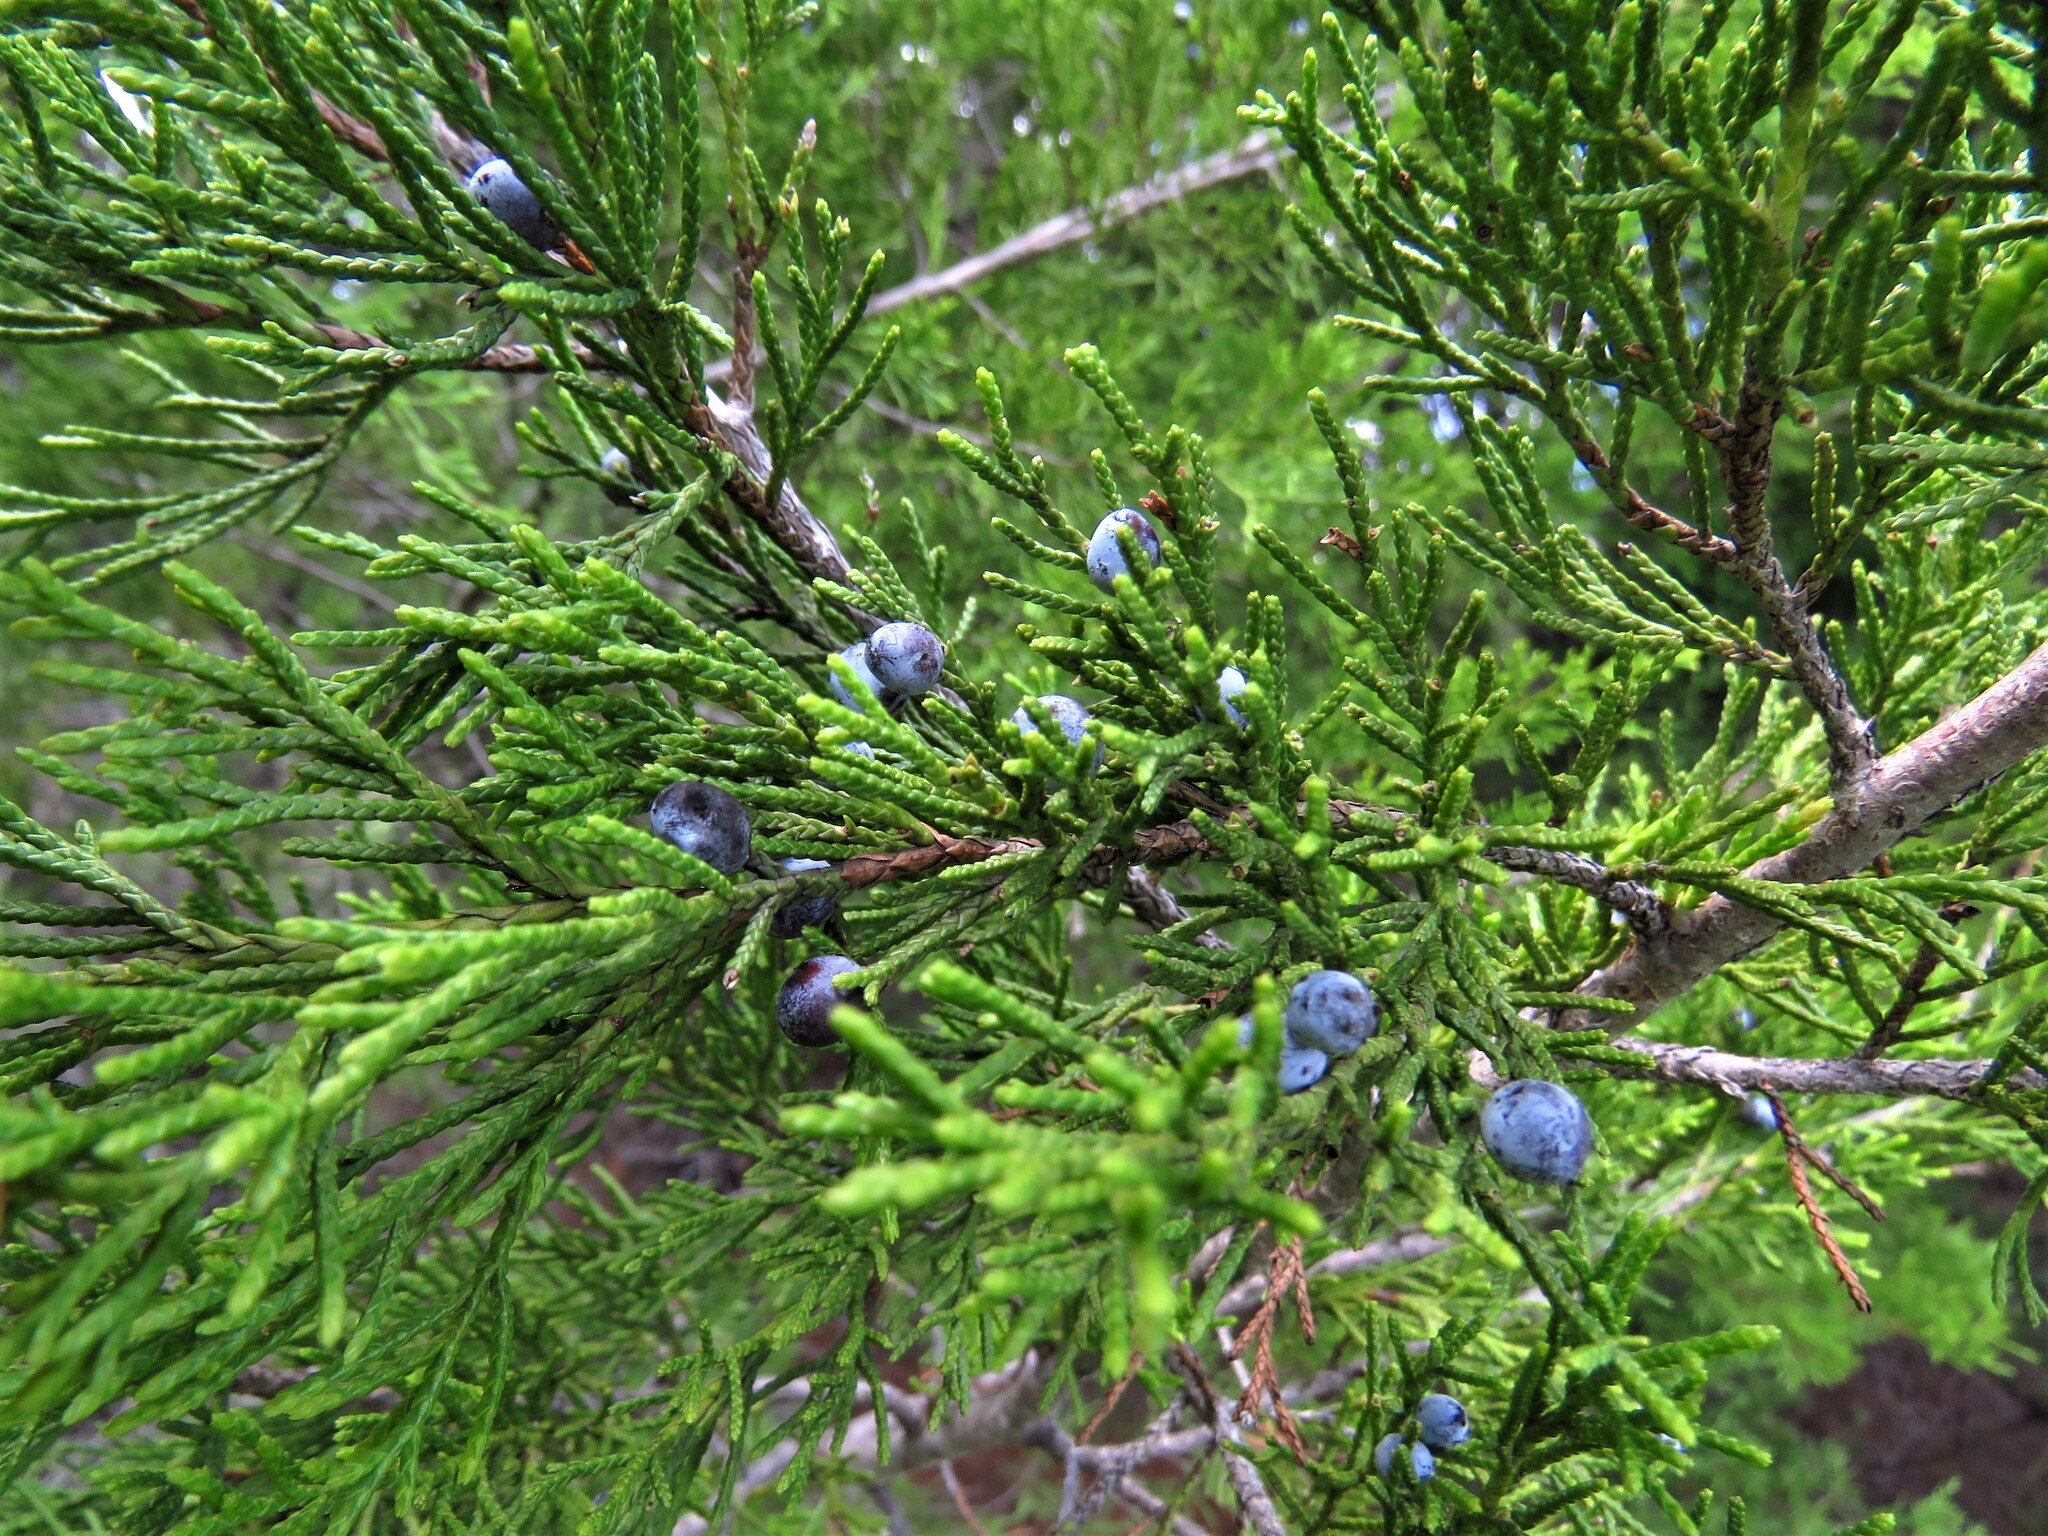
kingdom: Plantae
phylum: Tracheophyta
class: Pinopsida
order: Pinales
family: Cupressaceae
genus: Juniperus
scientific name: Juniperus virginiana
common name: Red juniper
